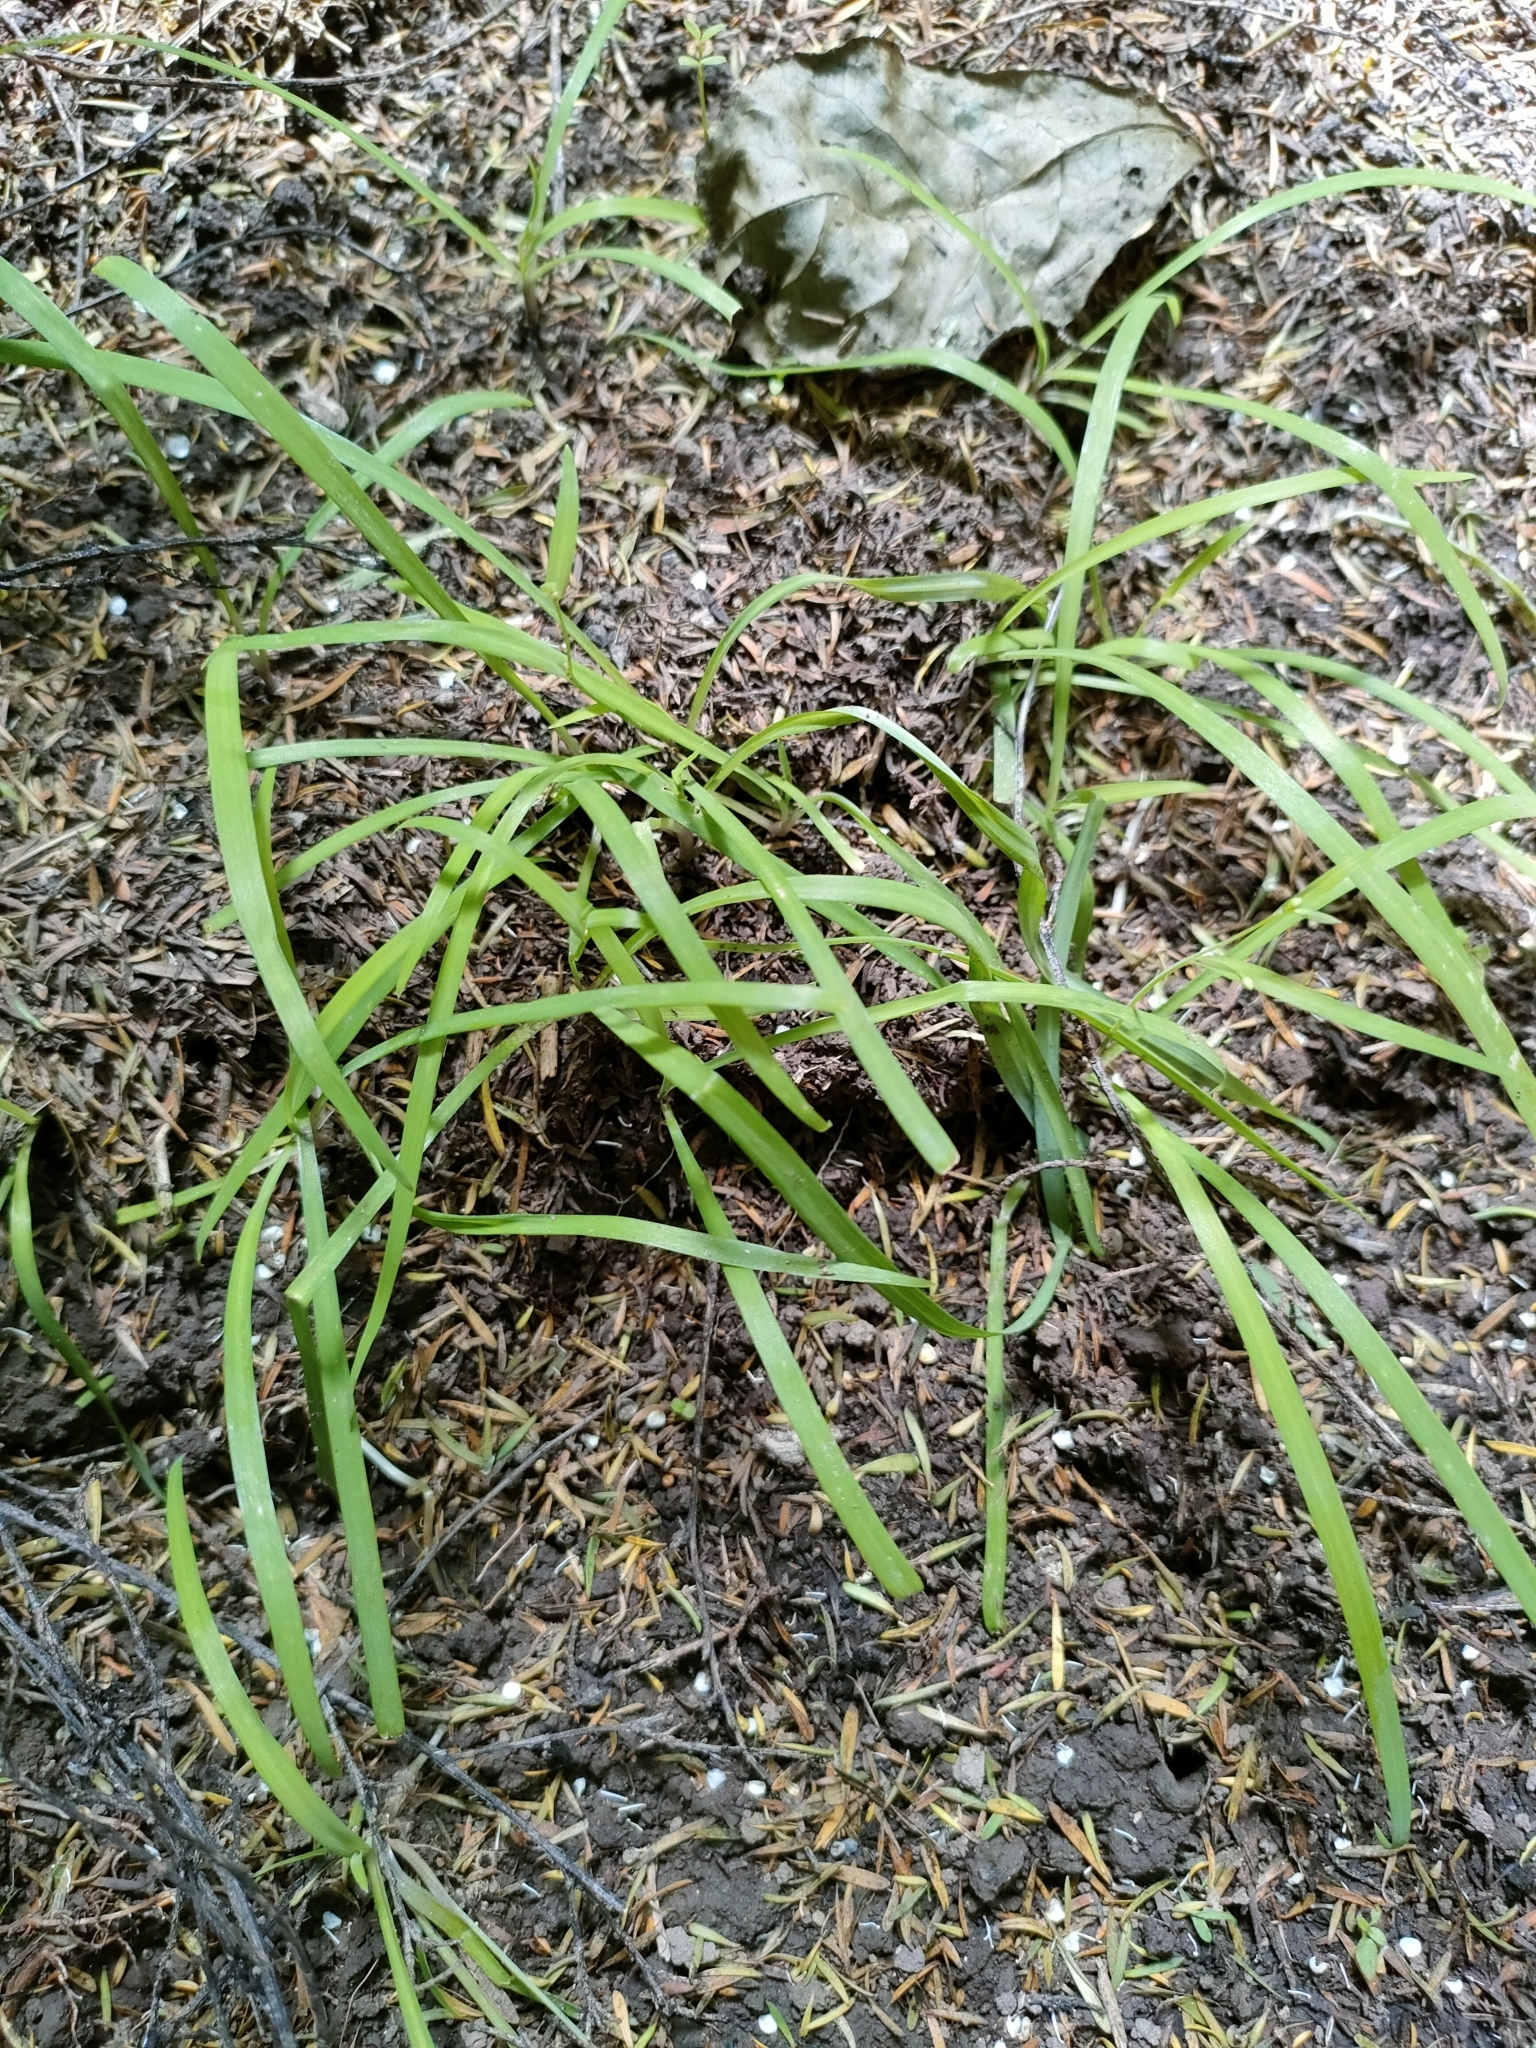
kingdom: Plantae
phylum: Tracheophyta
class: Liliopsida
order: Asparagales
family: Asparagaceae
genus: Arthropodium
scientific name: Arthropodium candidum
